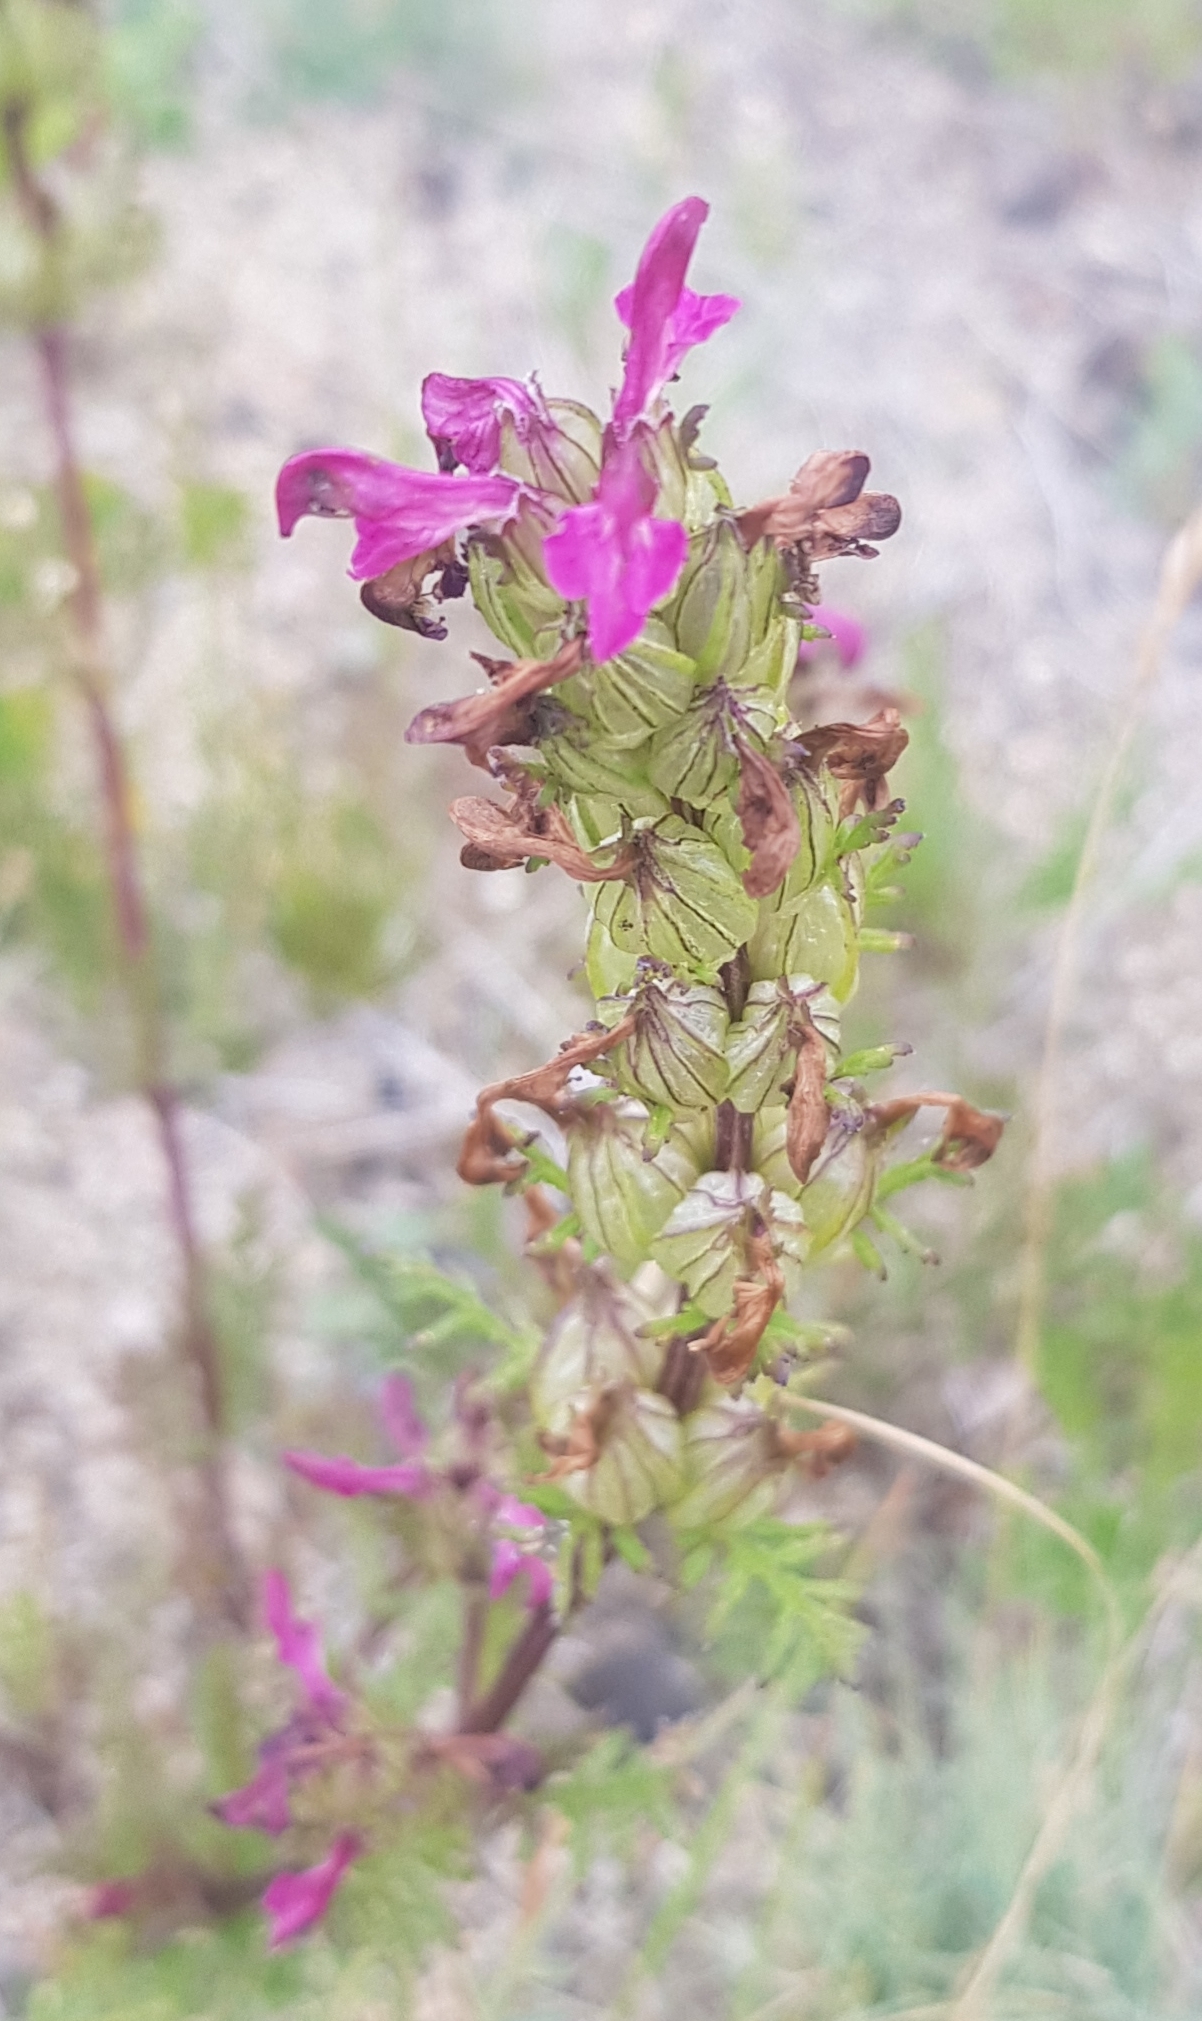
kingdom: Plantae
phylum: Tracheophyta
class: Magnoliopsida
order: Lamiales
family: Orobanchaceae
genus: Pedicularis
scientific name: Pedicularis myriophylla
